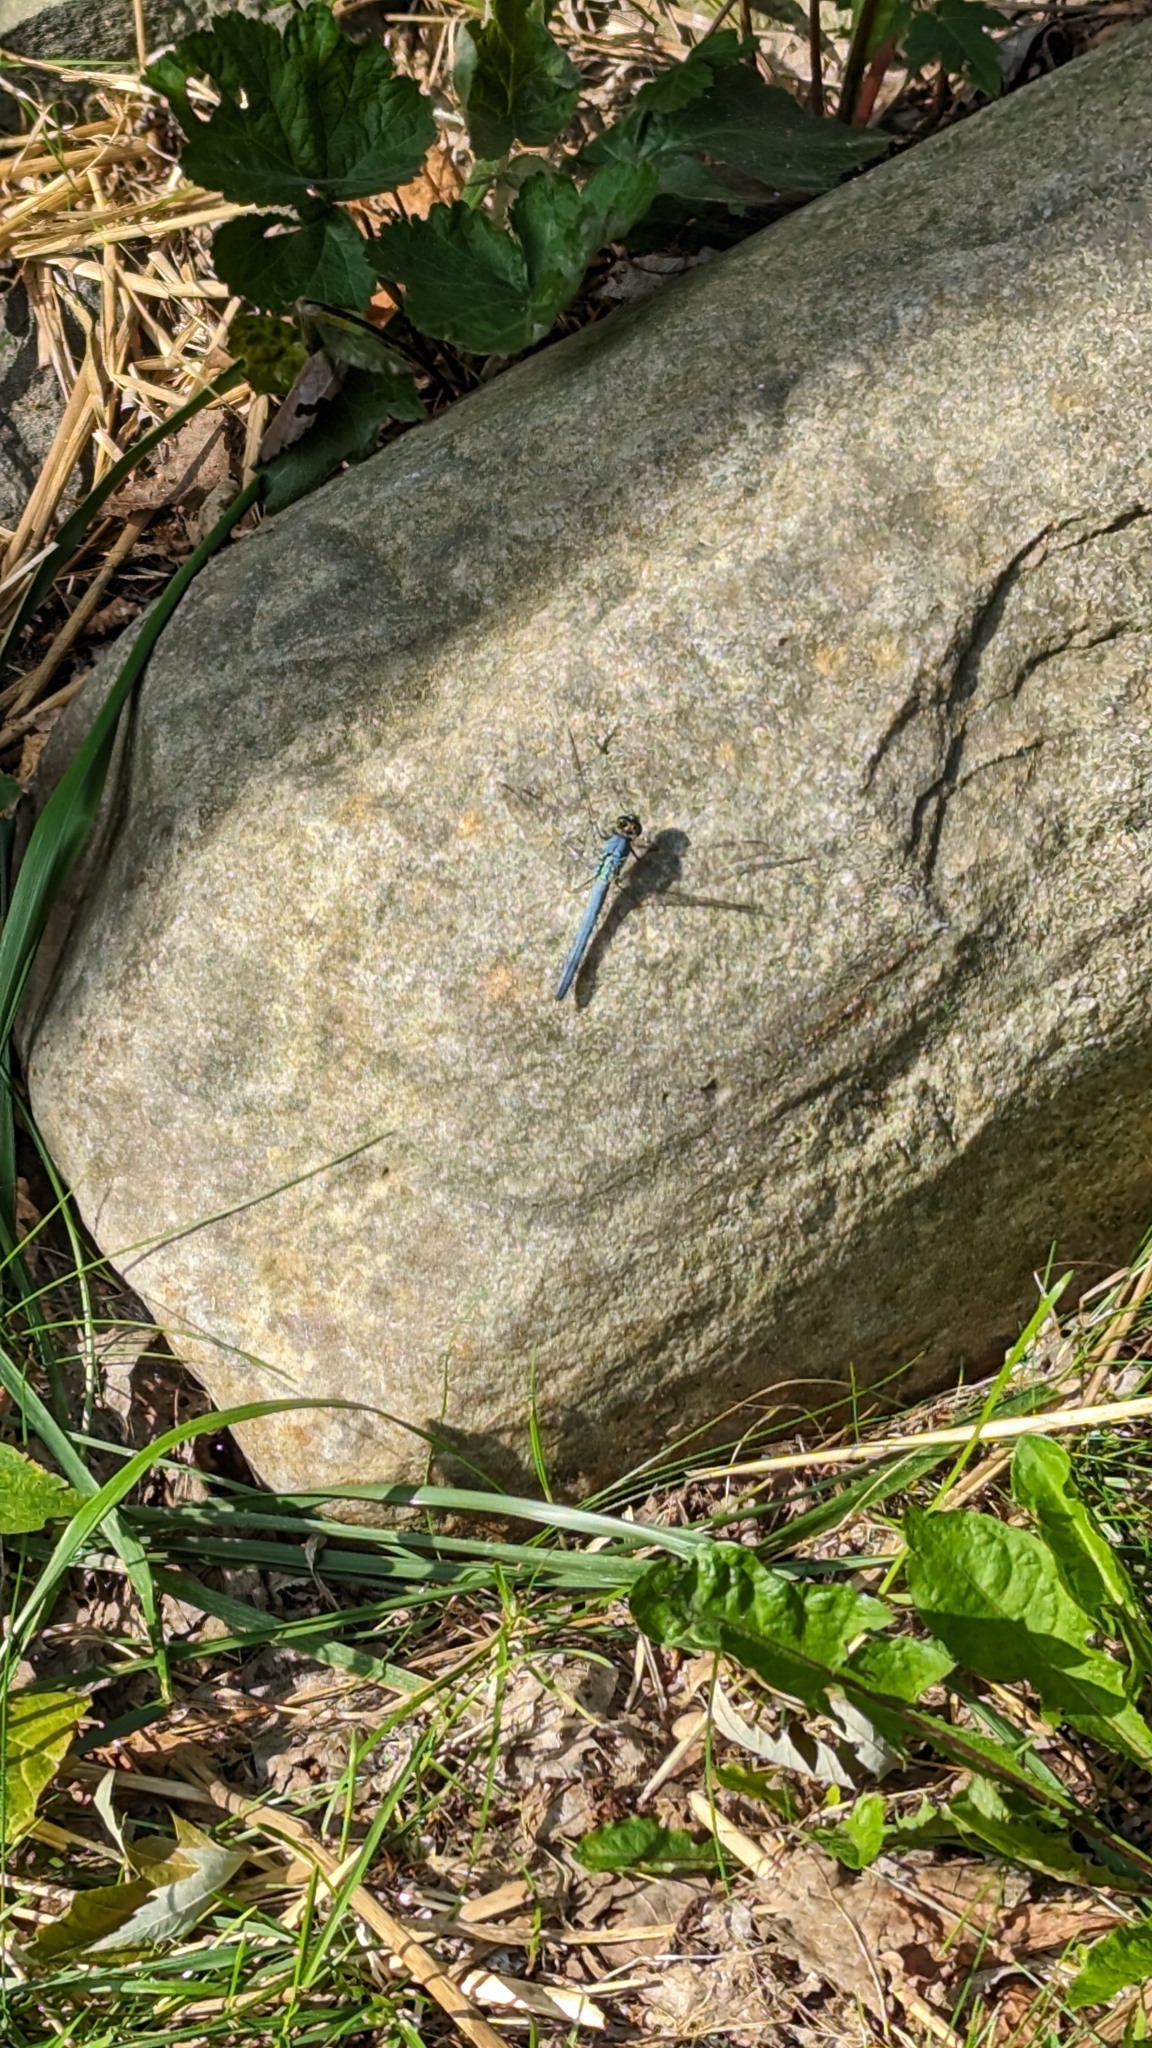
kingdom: Animalia
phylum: Arthropoda
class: Insecta
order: Odonata
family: Libellulidae
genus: Erythemis
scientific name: Erythemis simplicicollis
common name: Eastern pondhawk
